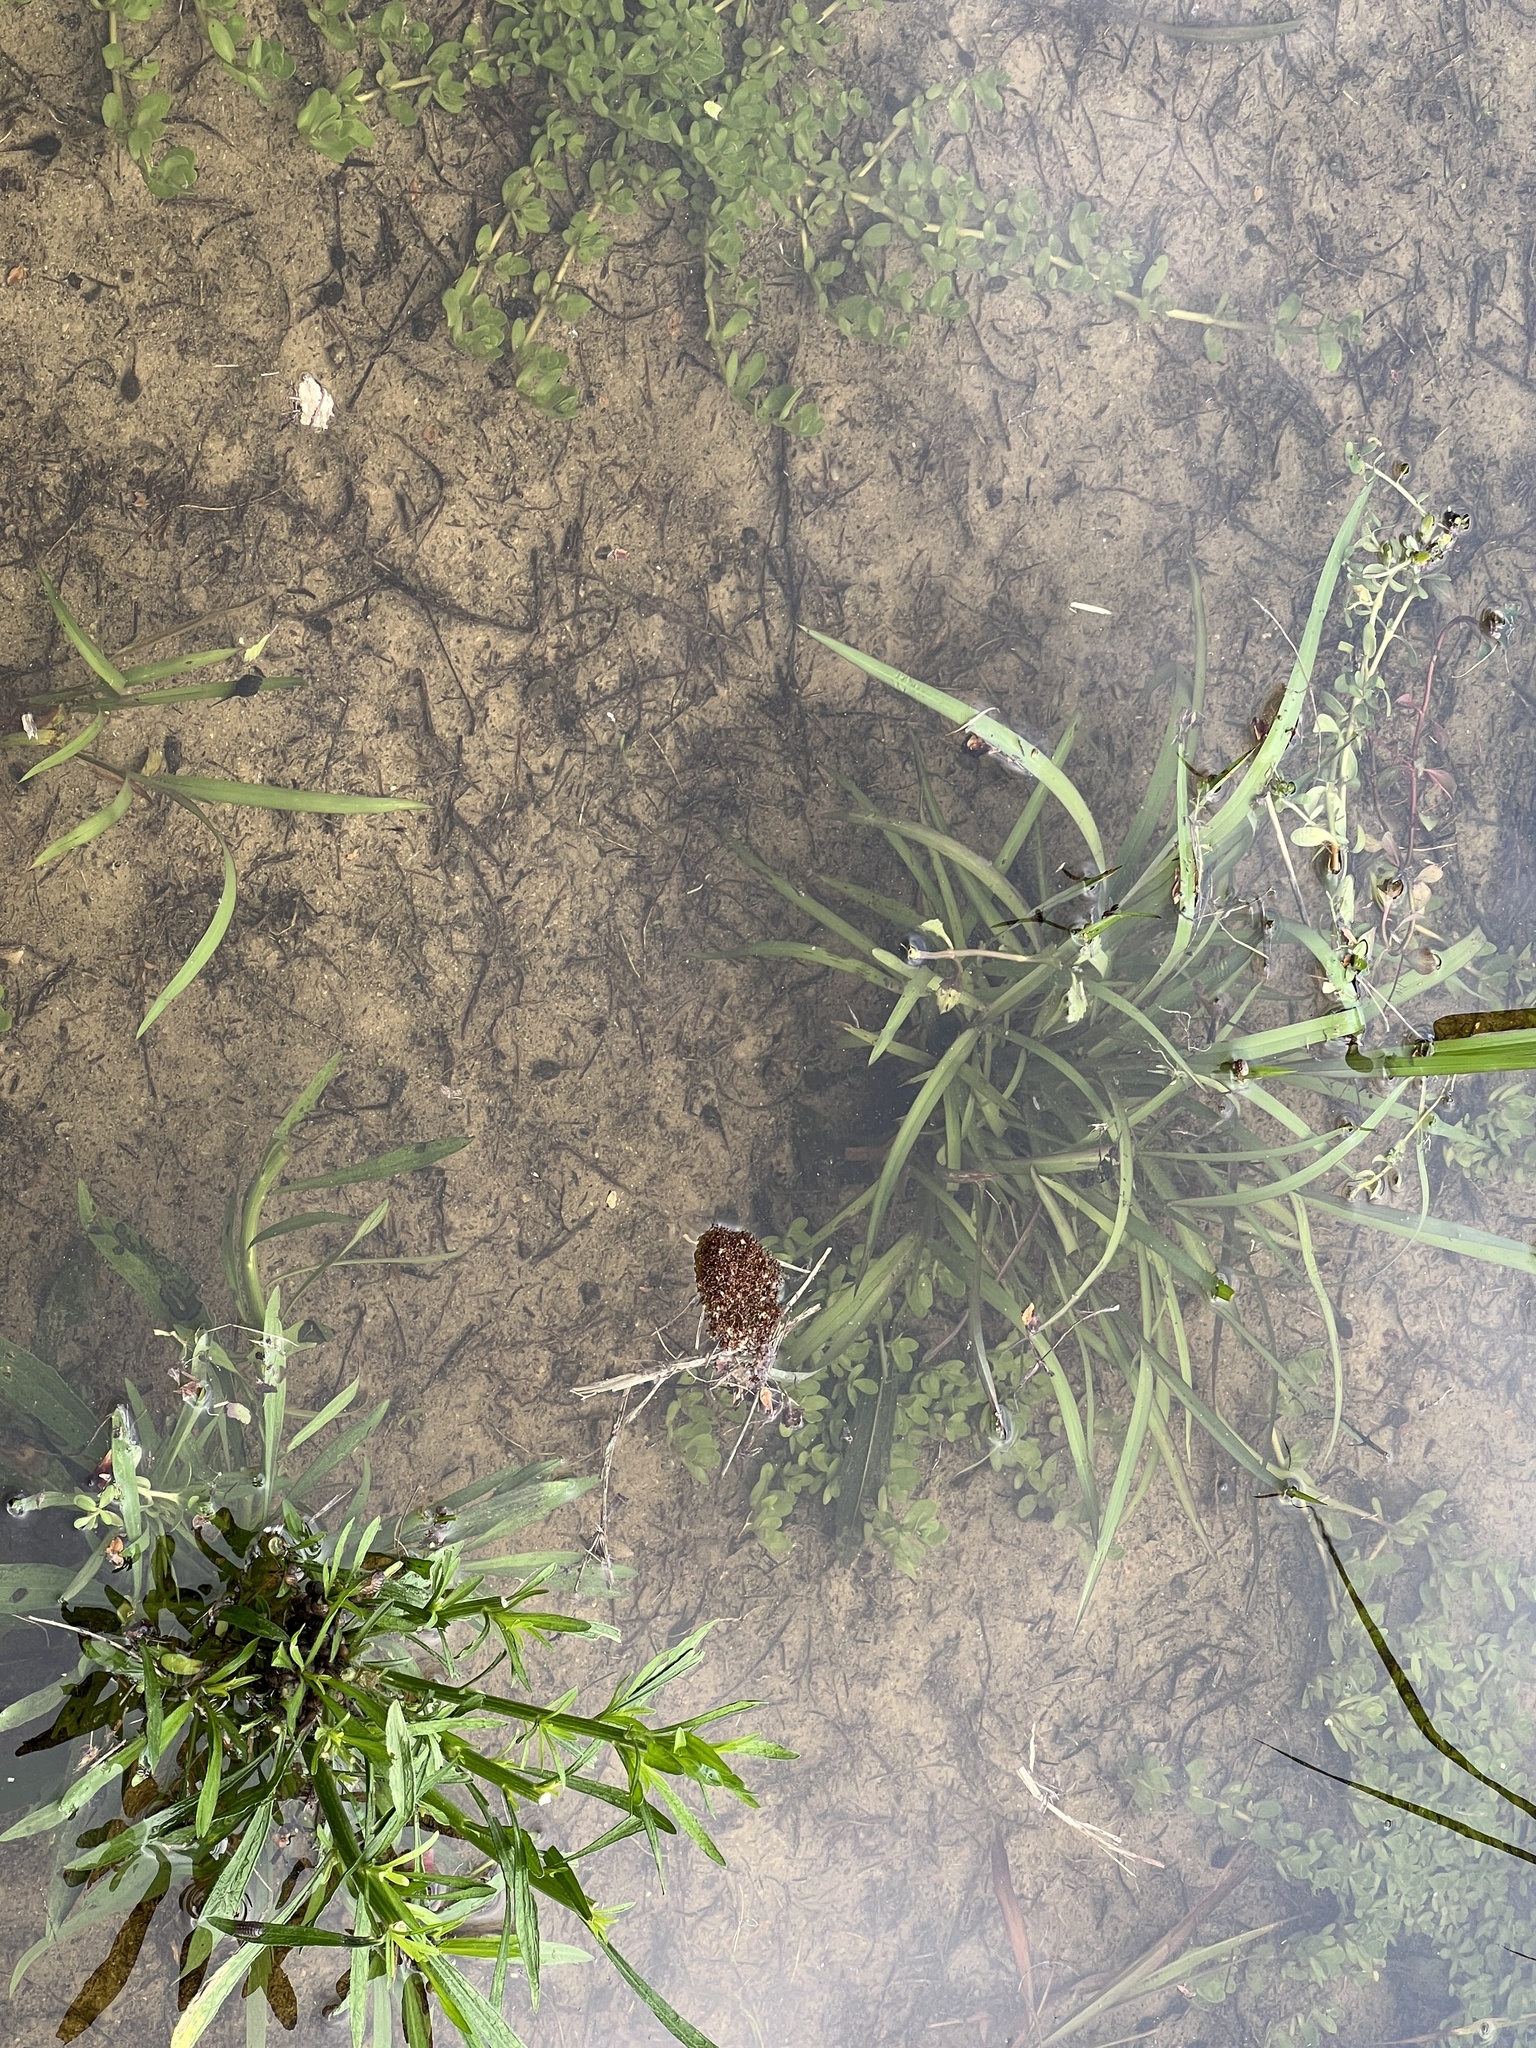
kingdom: Animalia
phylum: Arthropoda
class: Insecta
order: Hymenoptera
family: Formicidae
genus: Solenopsis
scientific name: Solenopsis invicta
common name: Red imported fire ant
